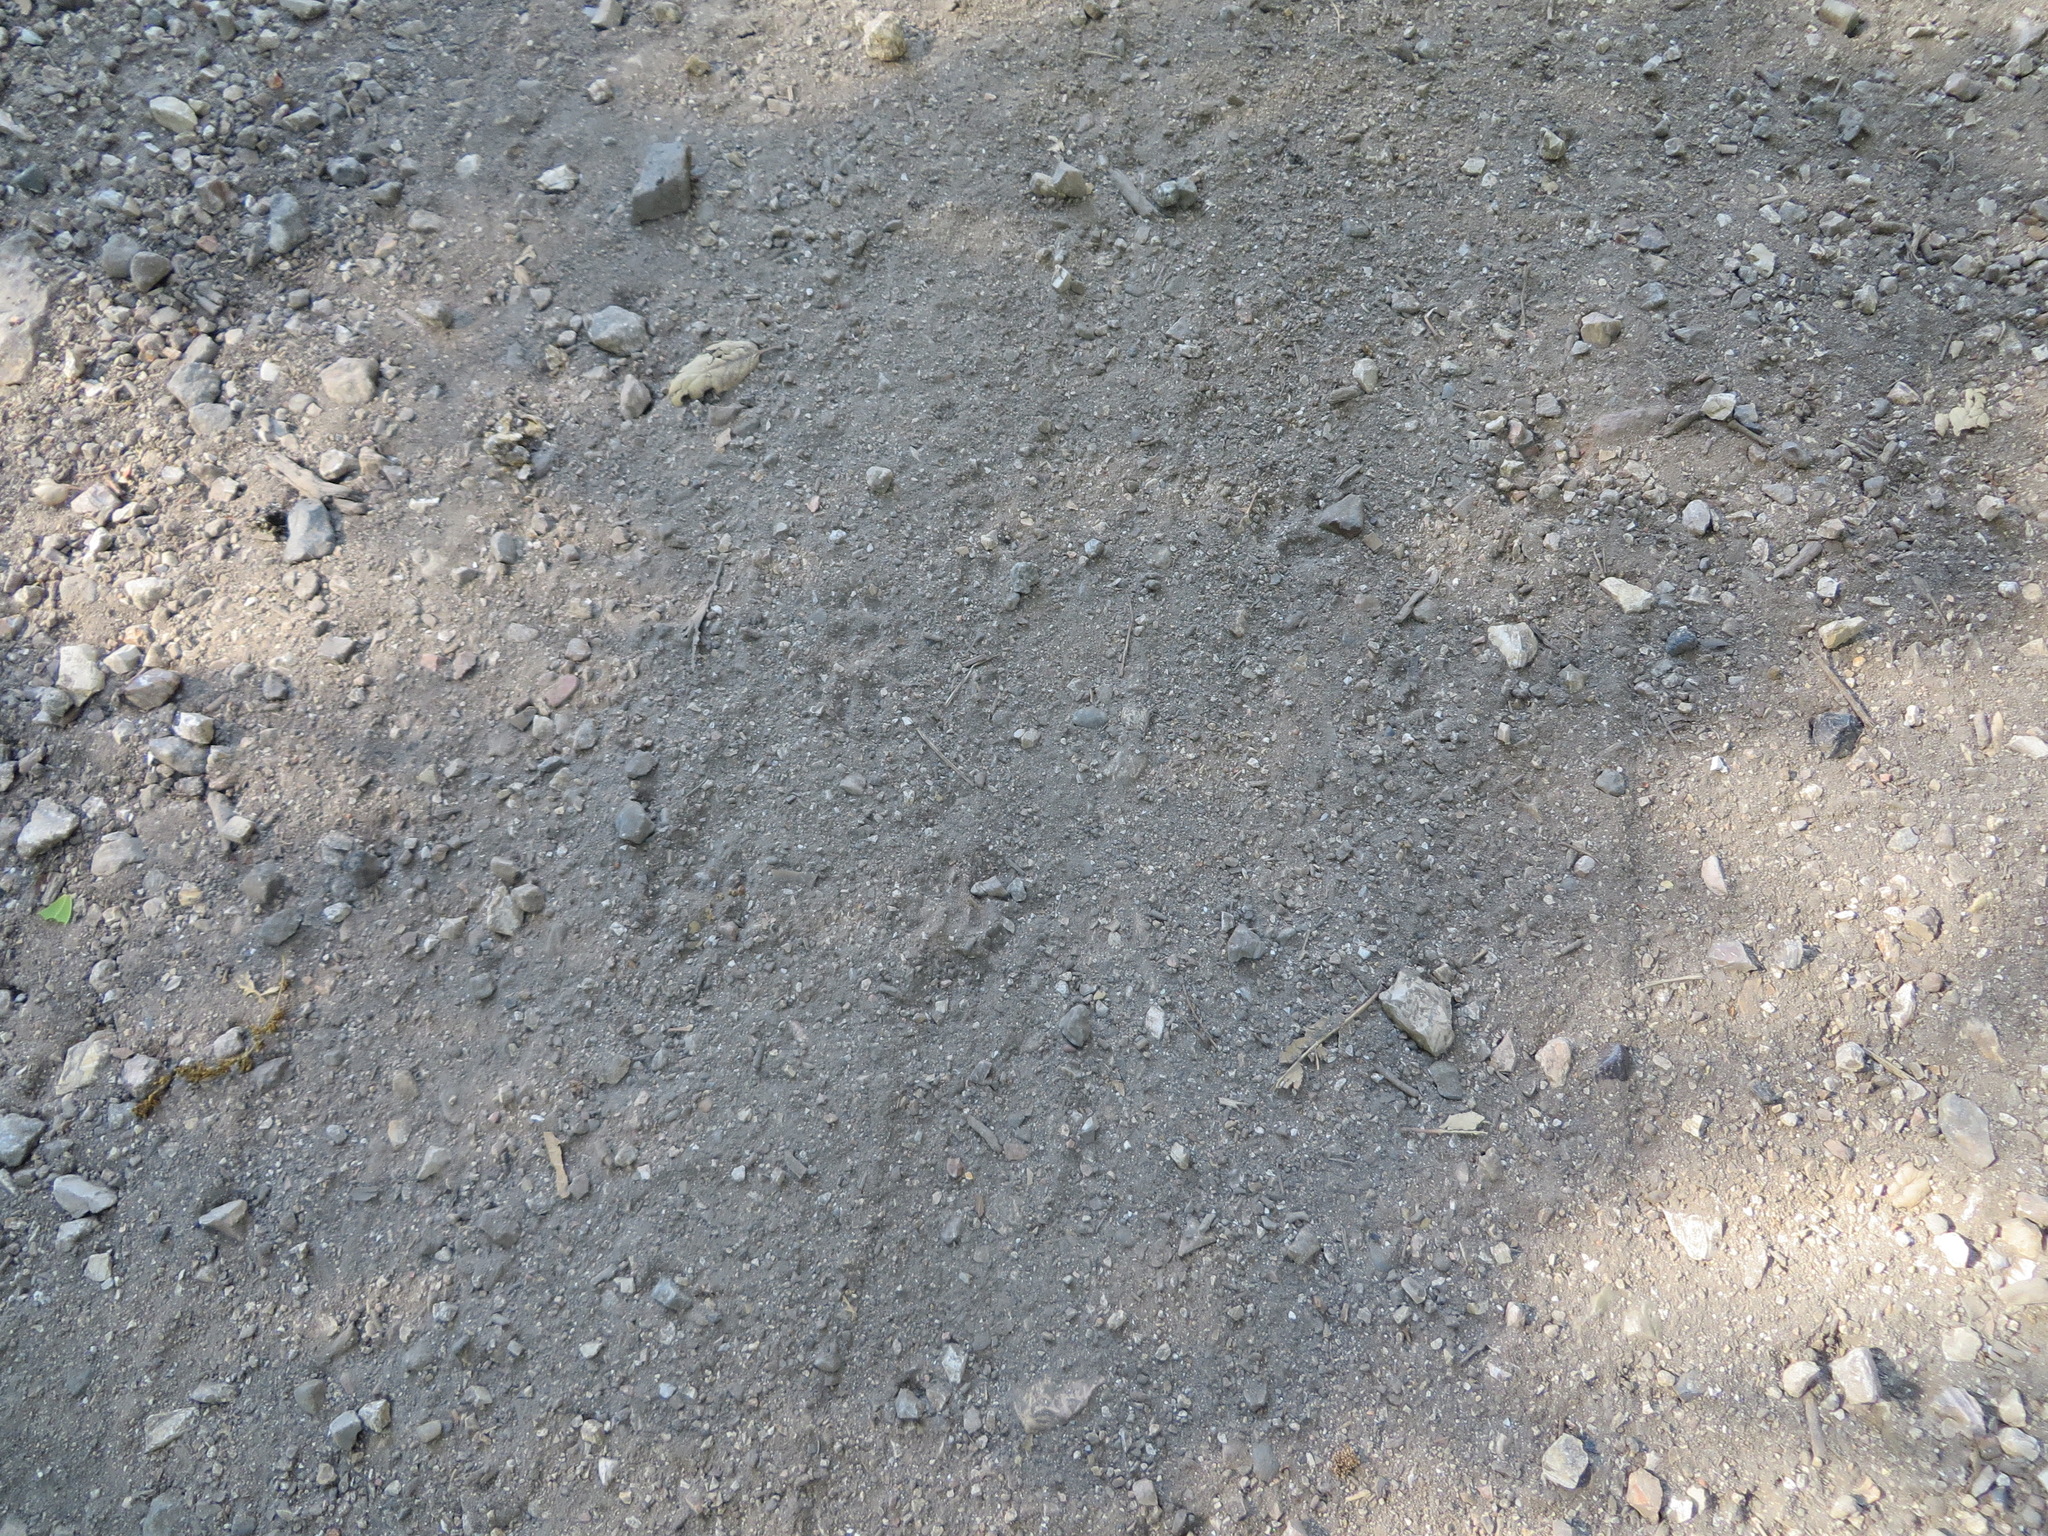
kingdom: Animalia
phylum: Chordata
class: Mammalia
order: Rodentia
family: Sciuridae
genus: Sciurus
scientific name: Sciurus griseus
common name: Western gray squirrel
